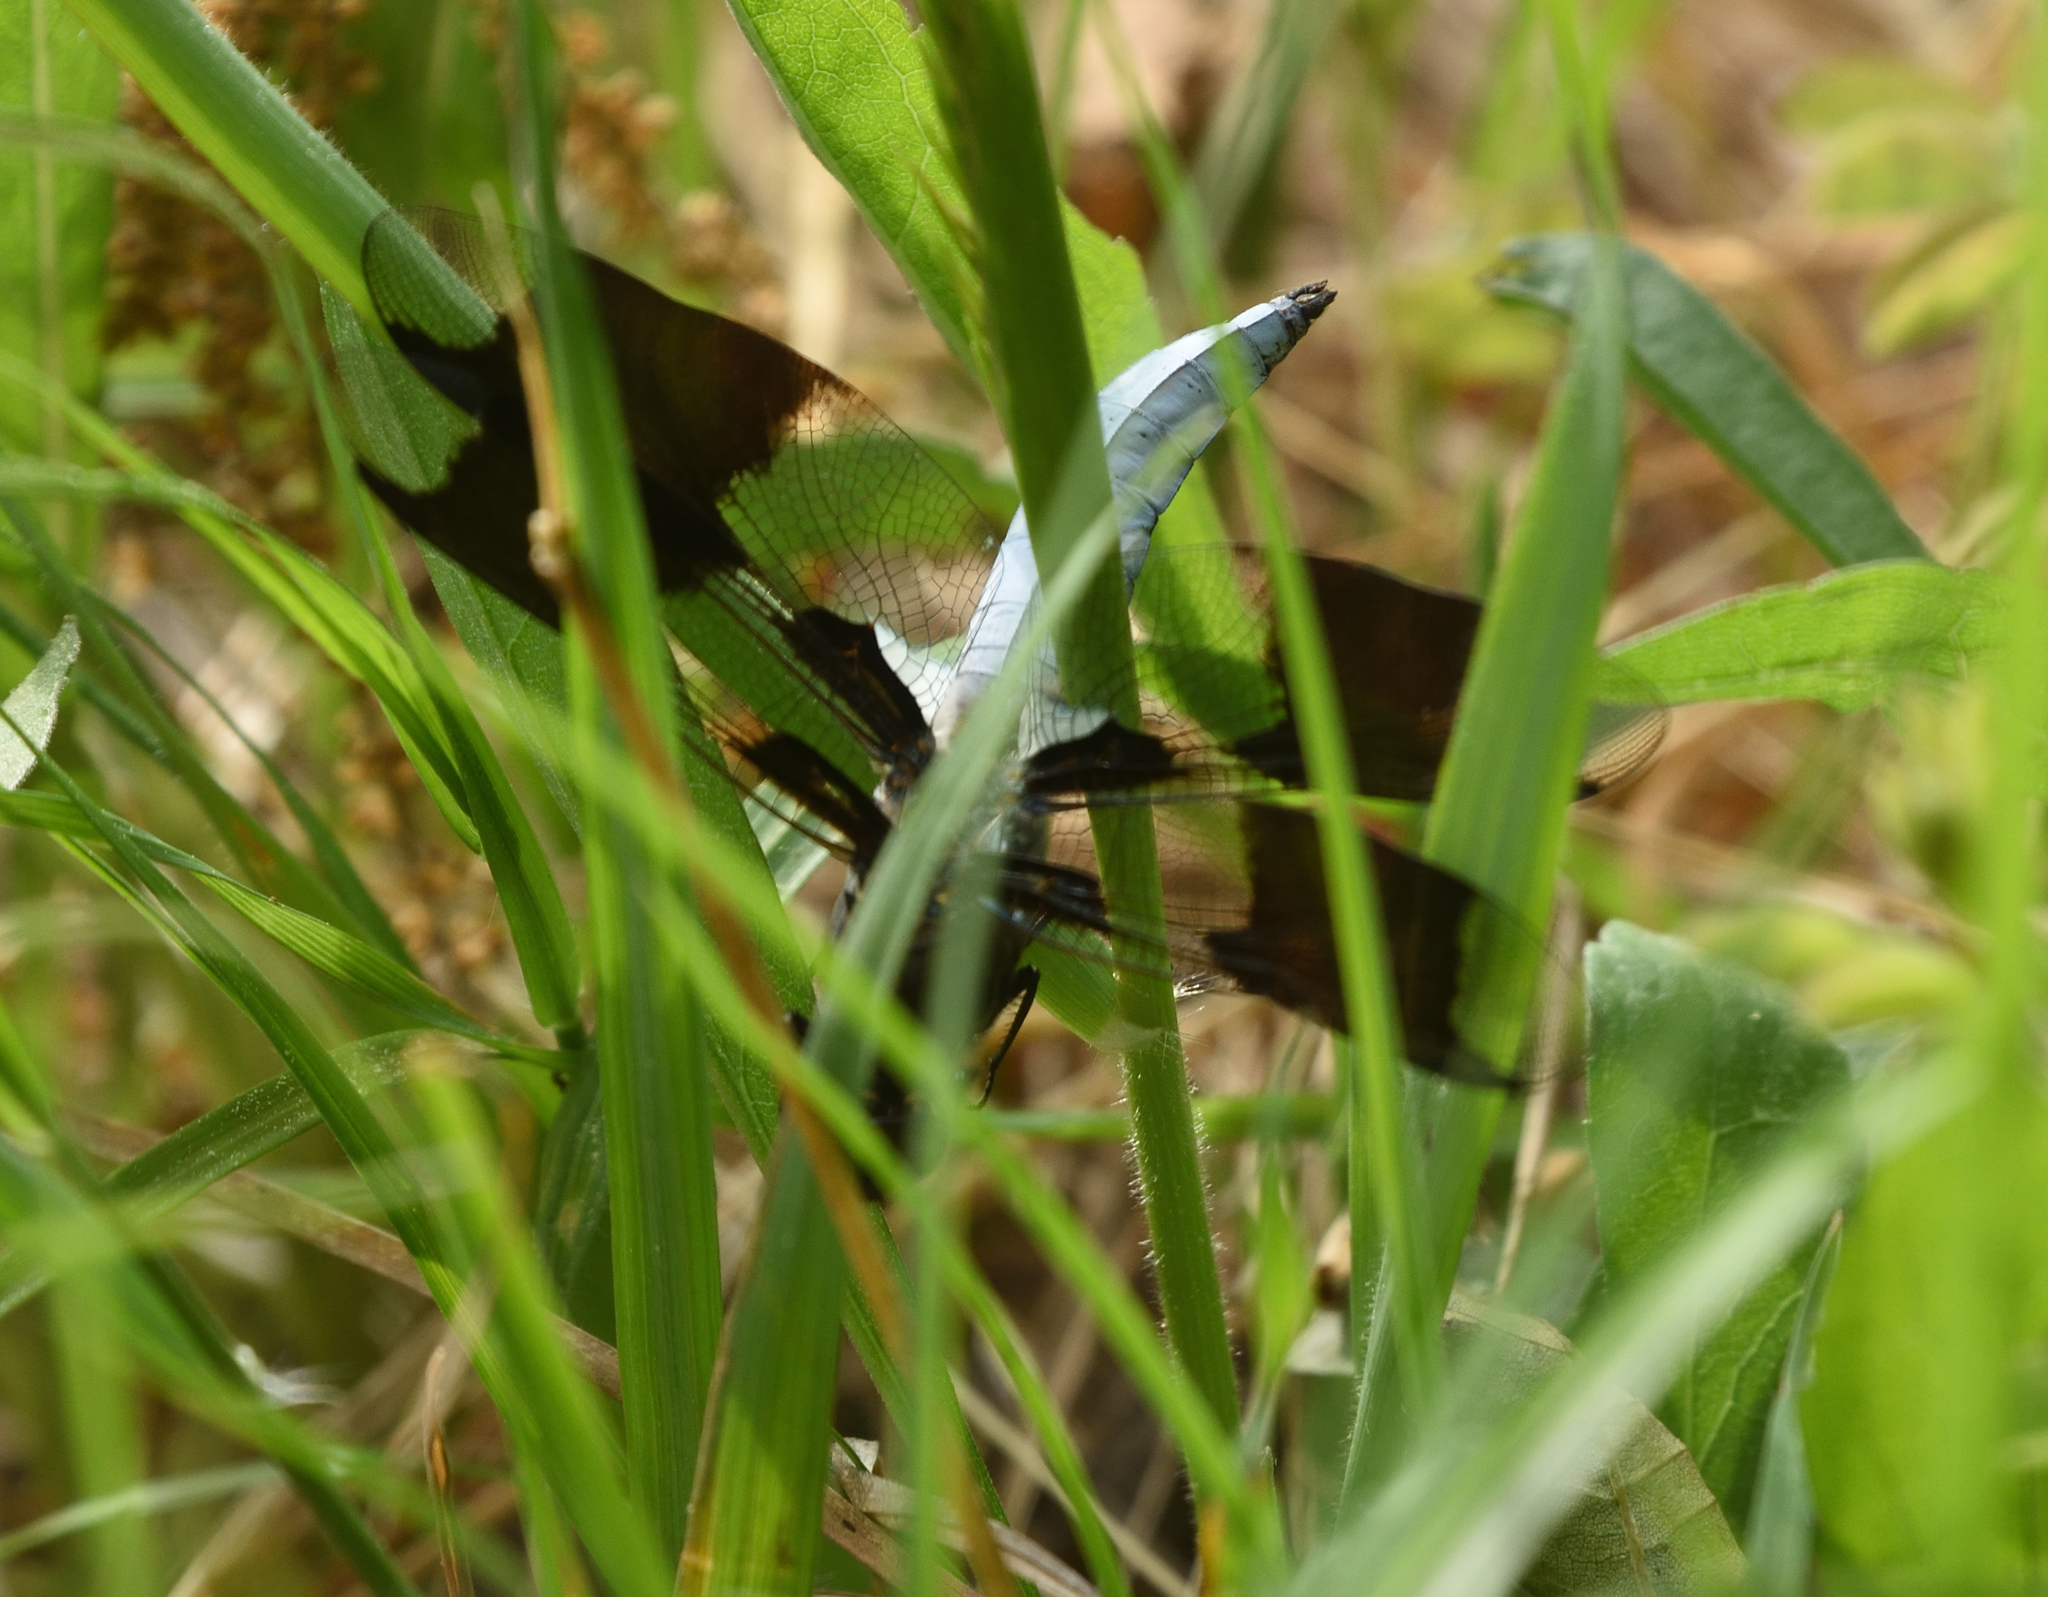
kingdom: Animalia
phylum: Arthropoda
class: Insecta
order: Odonata
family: Libellulidae
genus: Plathemis
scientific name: Plathemis lydia
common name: Common whitetail
